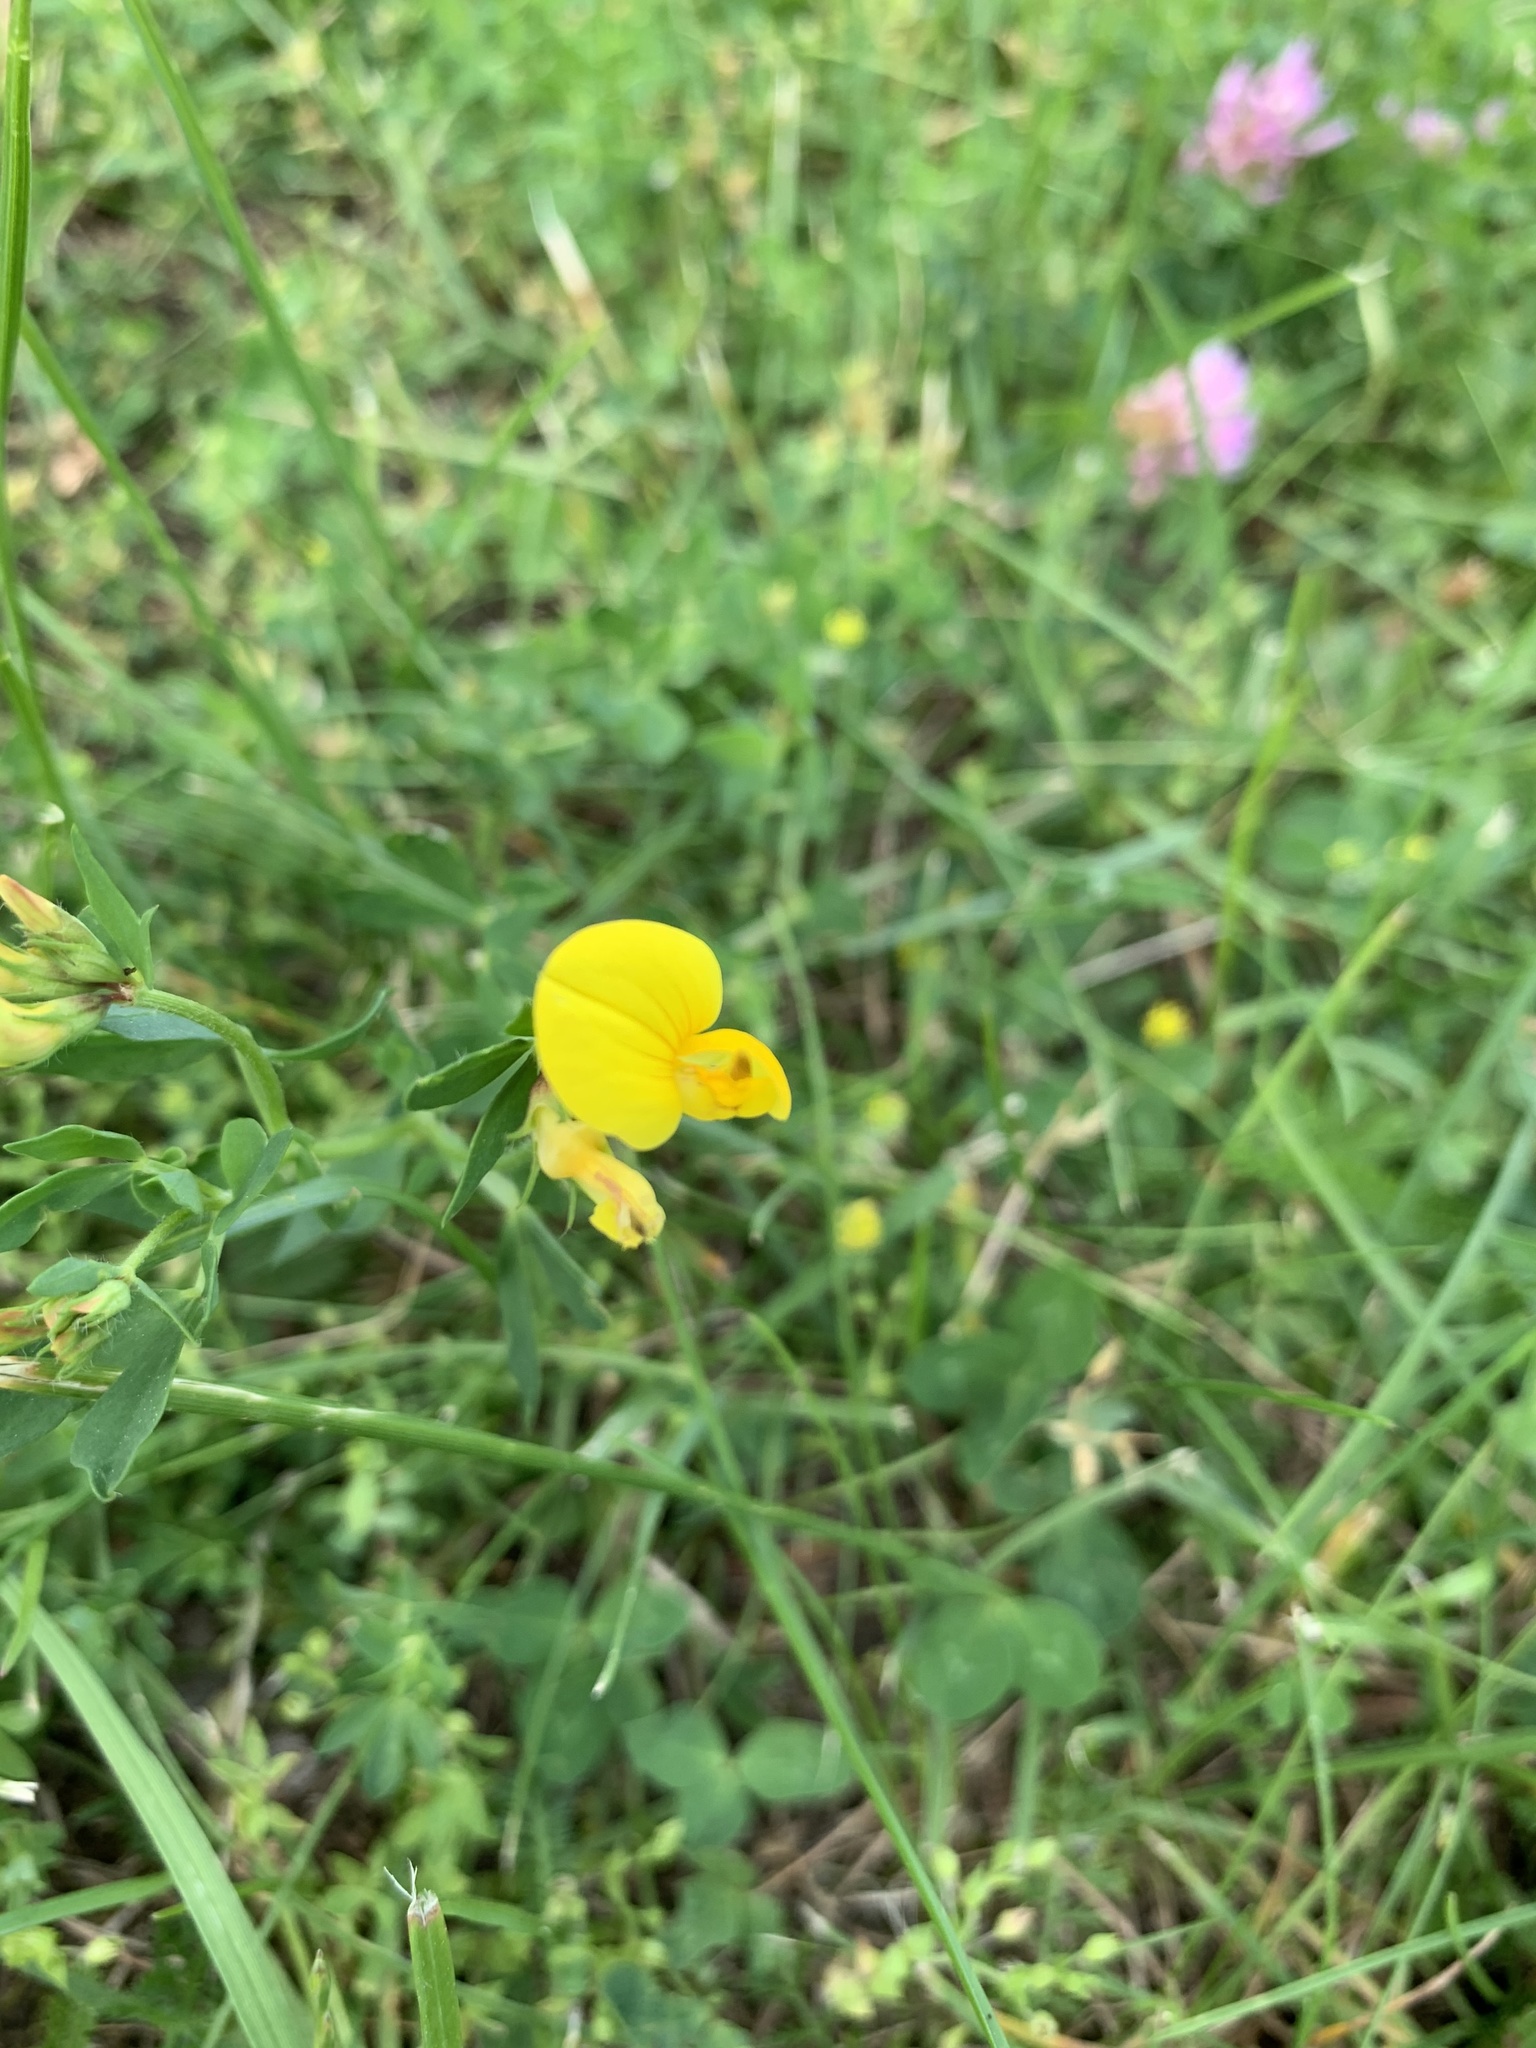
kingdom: Plantae
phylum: Tracheophyta
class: Magnoliopsida
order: Fabales
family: Fabaceae
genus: Lotus
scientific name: Lotus corniculatus
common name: Common bird's-foot-trefoil
